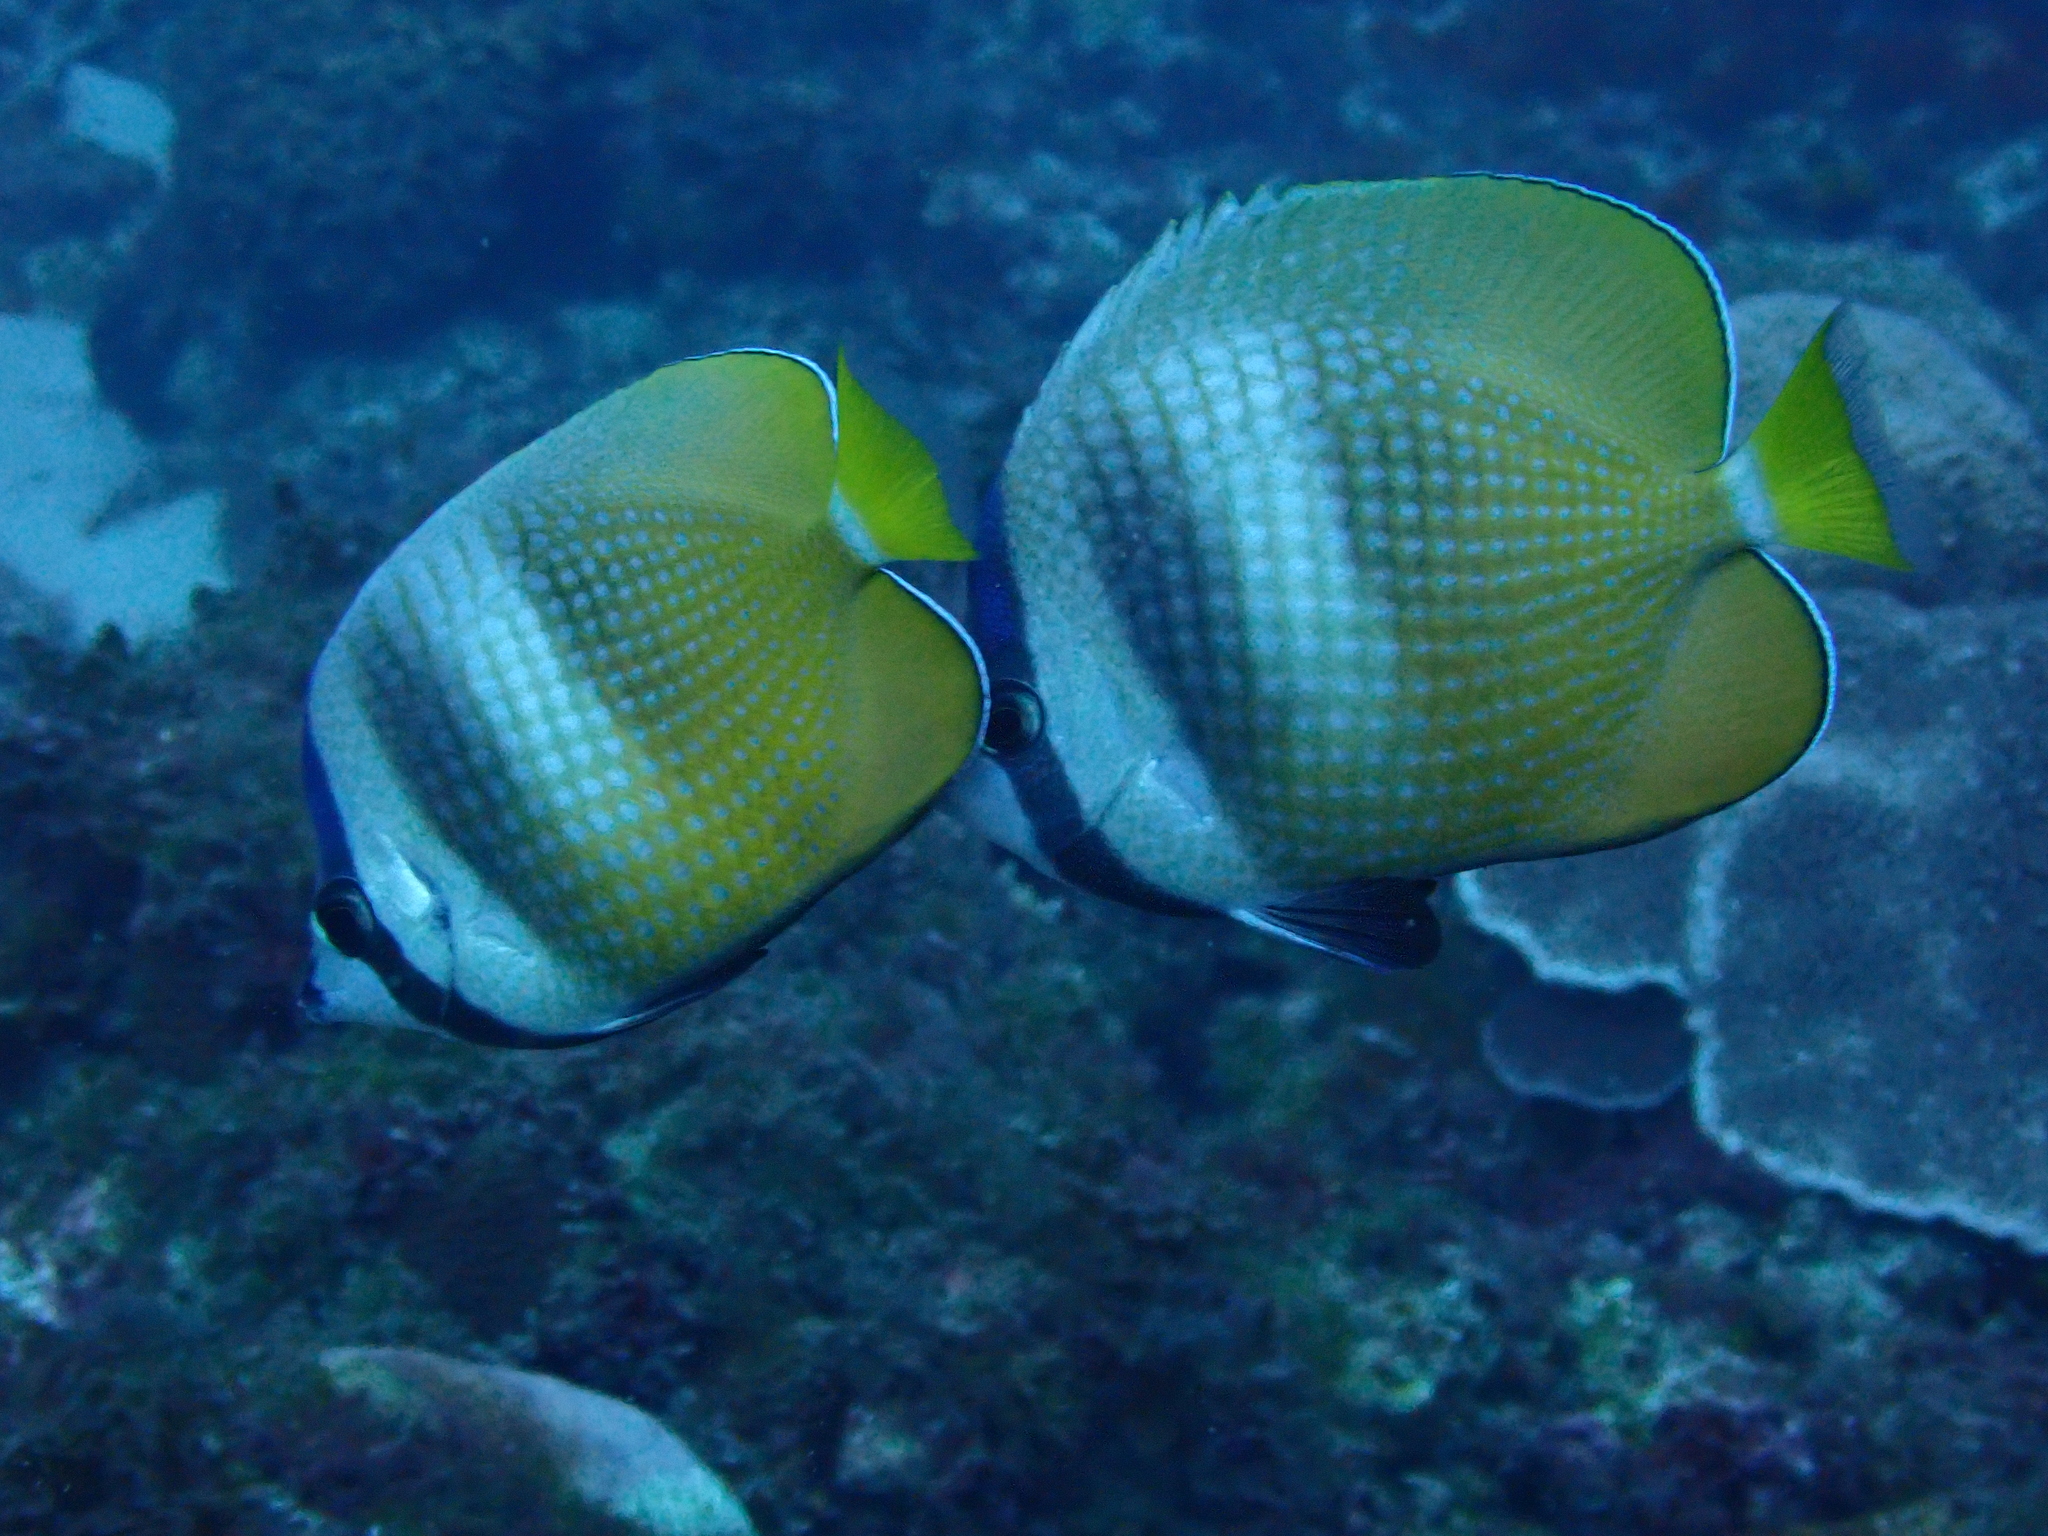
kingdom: Animalia
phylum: Chordata
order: Perciformes
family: Chaetodontidae
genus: Chaetodon
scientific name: Chaetodon kleinii
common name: Klein's butterflyfish
